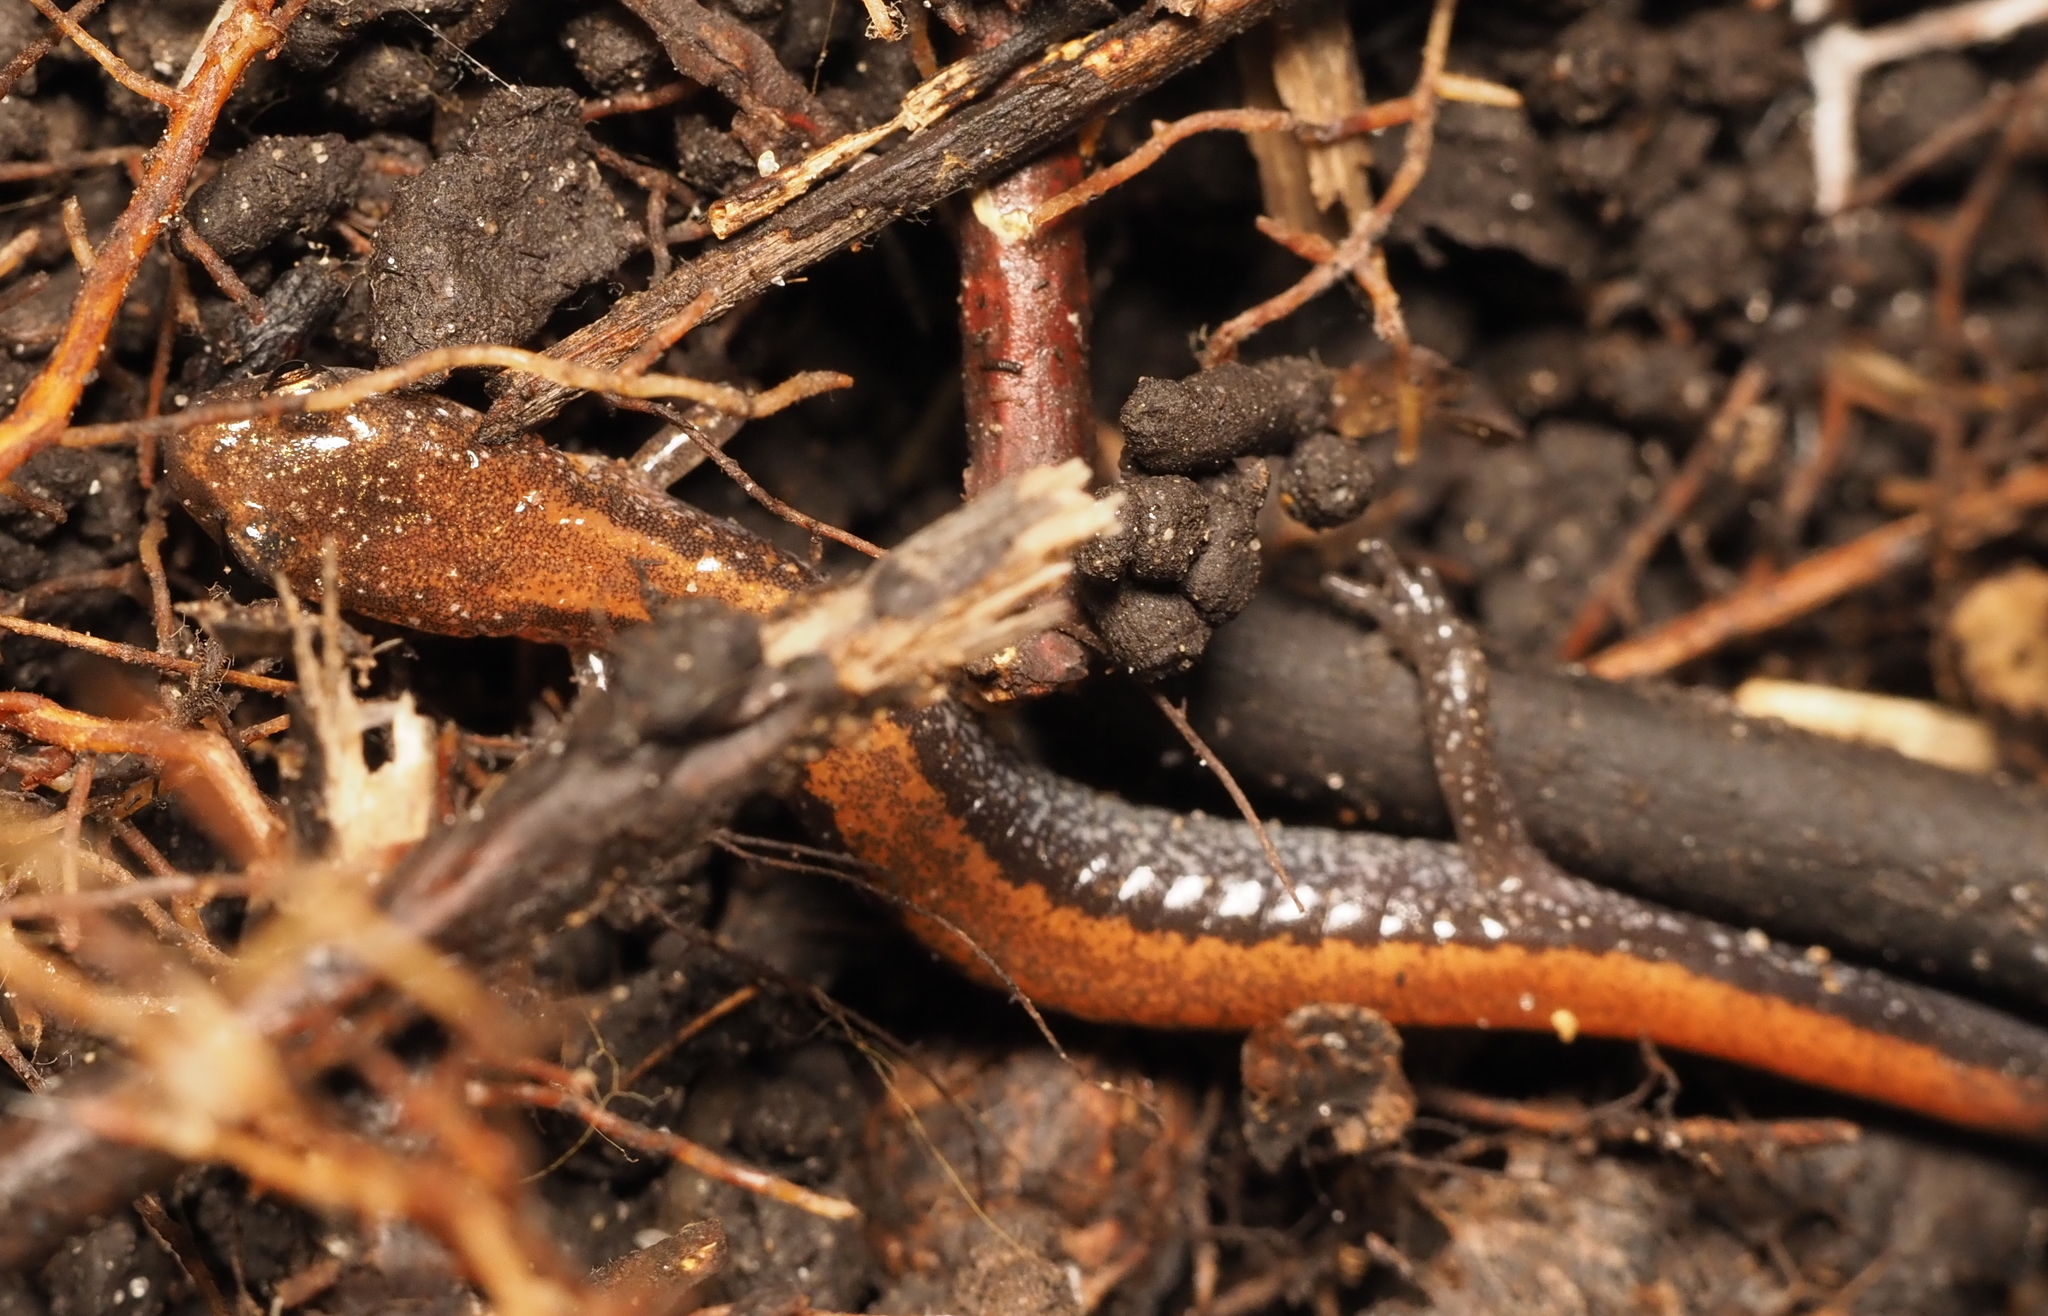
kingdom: Animalia
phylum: Chordata
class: Amphibia
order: Caudata
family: Plethodontidae
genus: Plethodon
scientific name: Plethodon cinereus
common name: Redback salamander
